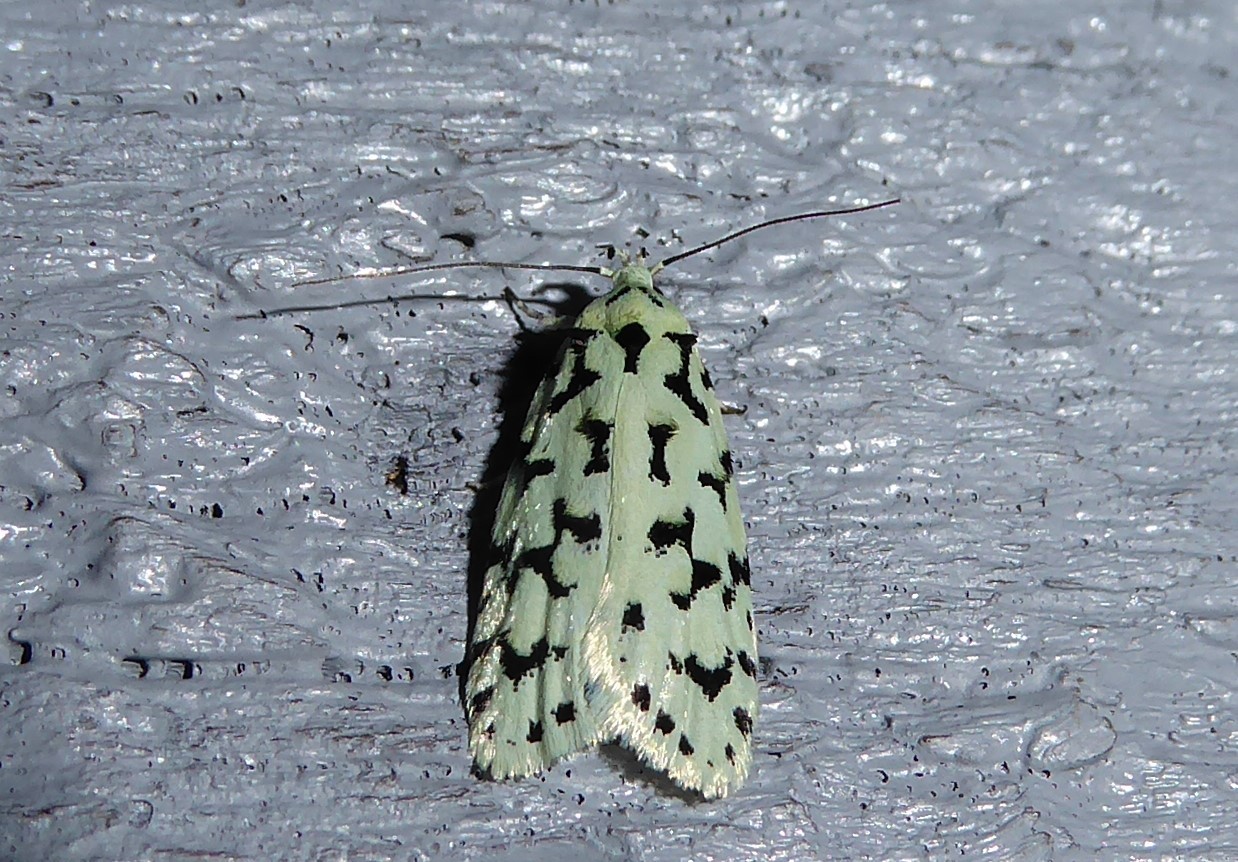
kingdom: Animalia
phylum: Arthropoda
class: Insecta
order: Lepidoptera
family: Oecophoridae
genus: Izatha
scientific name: Izatha huttoni
